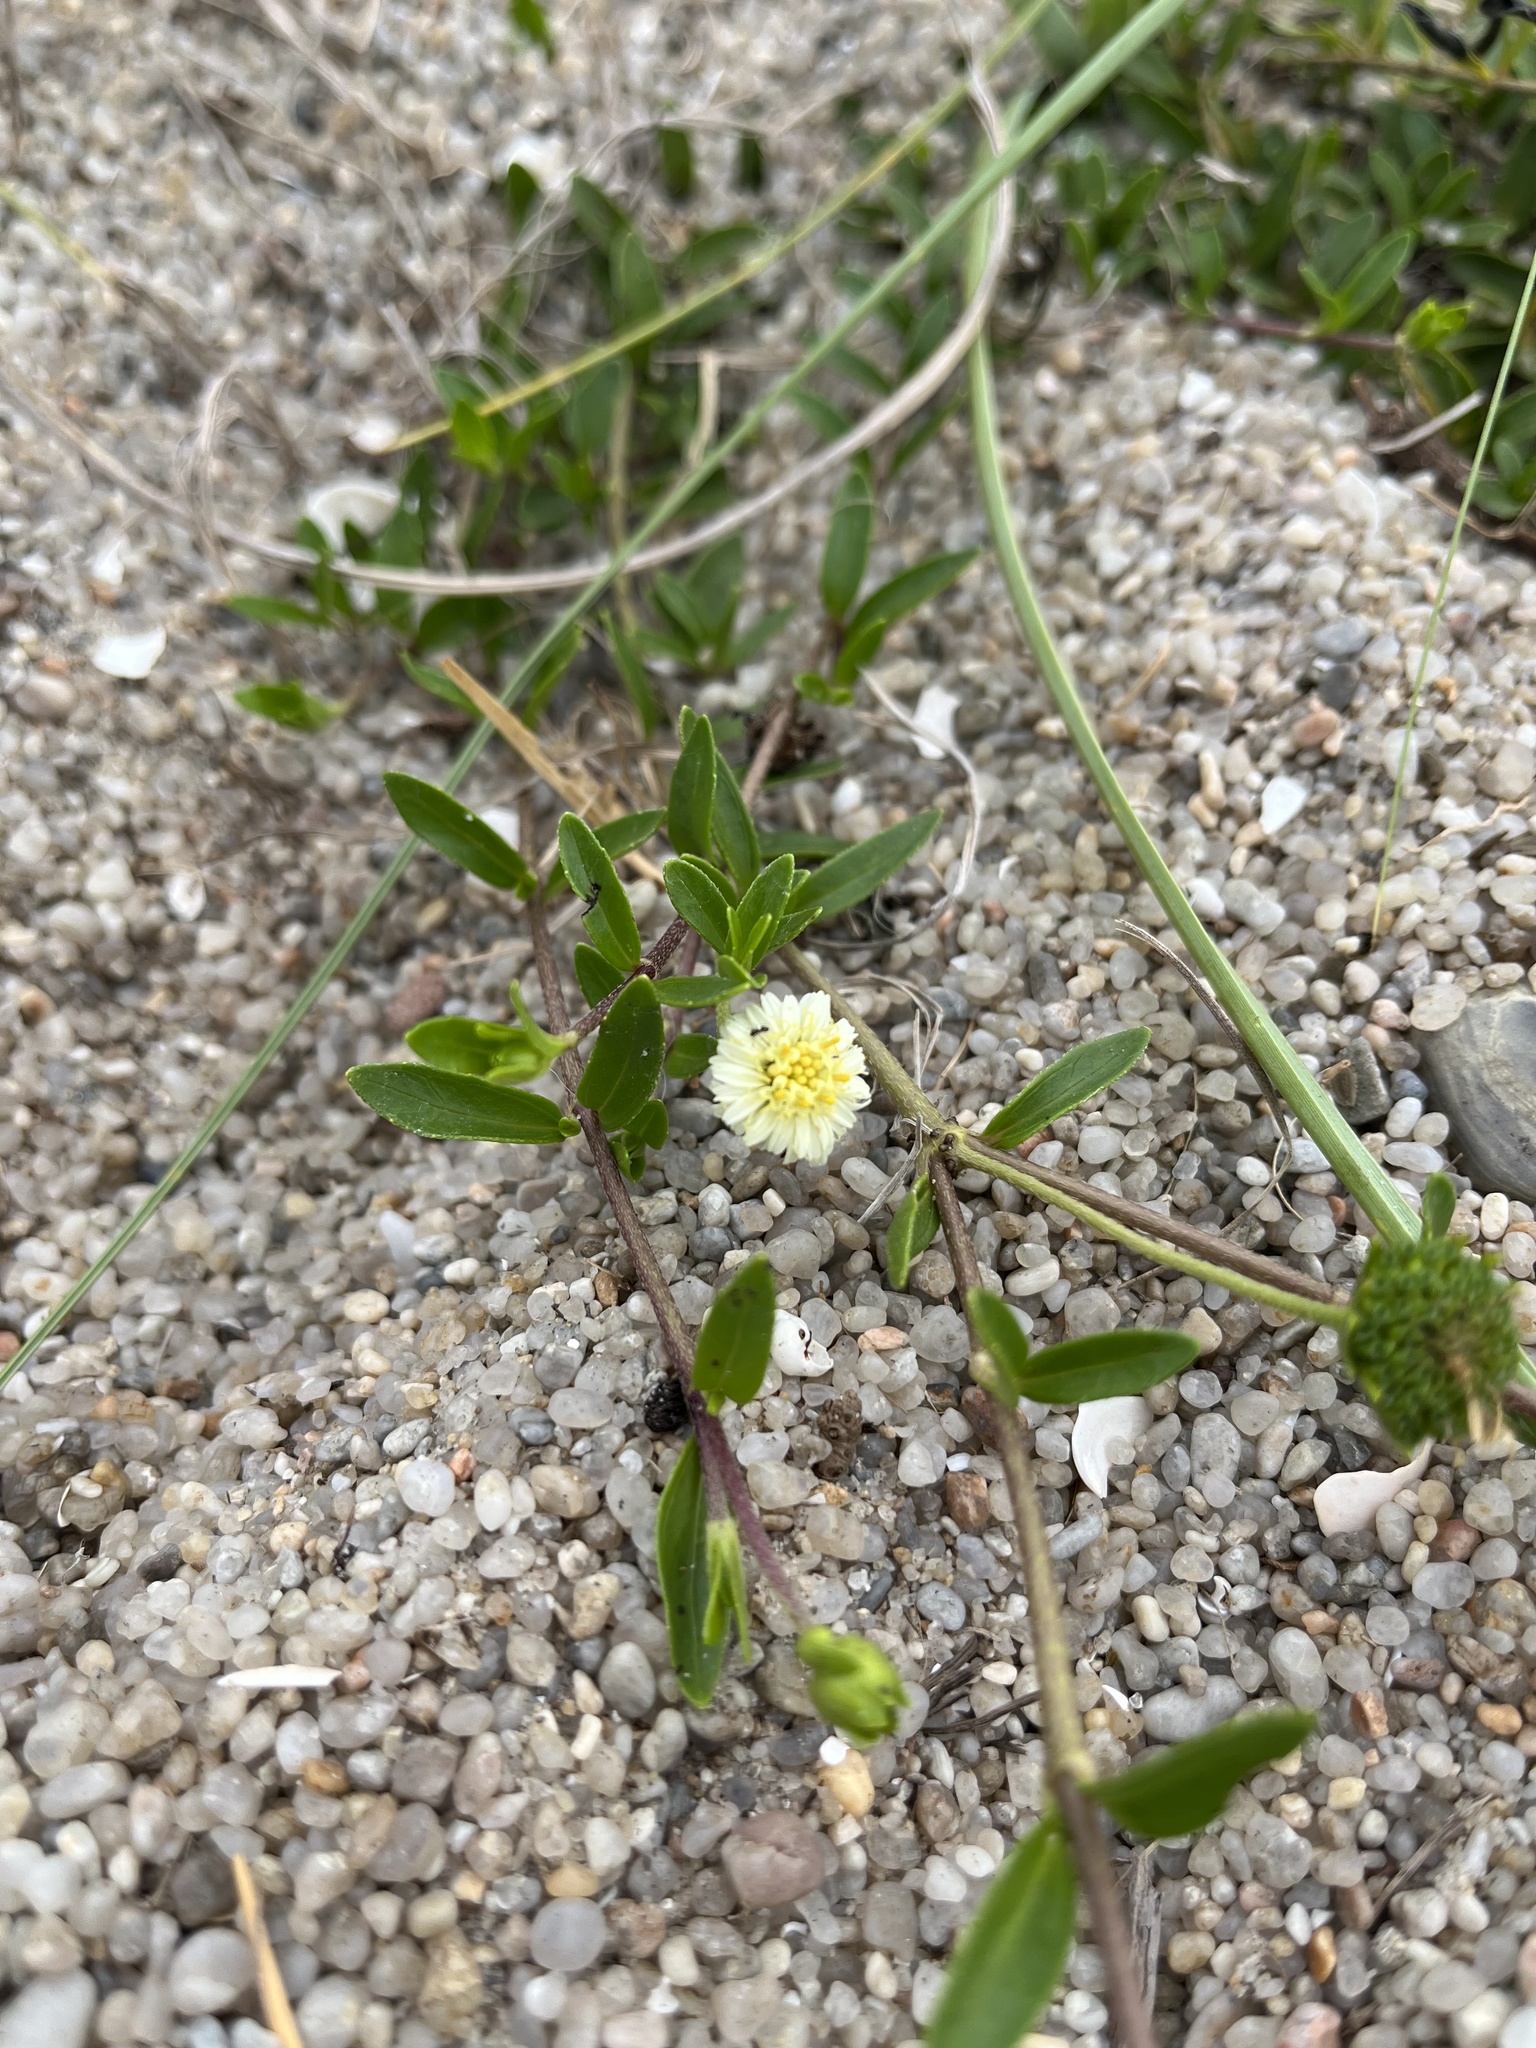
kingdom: Plantae
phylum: Tracheophyta
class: Magnoliopsida
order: Asterales
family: Asteraceae
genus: Eclipta
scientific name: Eclipta elliptica
